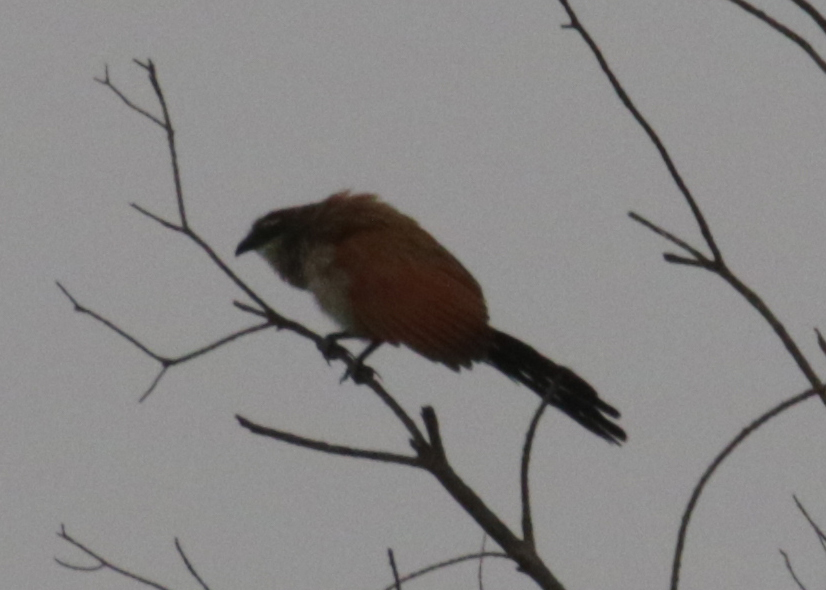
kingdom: Animalia
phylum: Chordata
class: Aves
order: Cuculiformes
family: Cuculidae
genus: Centropus
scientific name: Centropus superciliosus
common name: White-browed coucal
